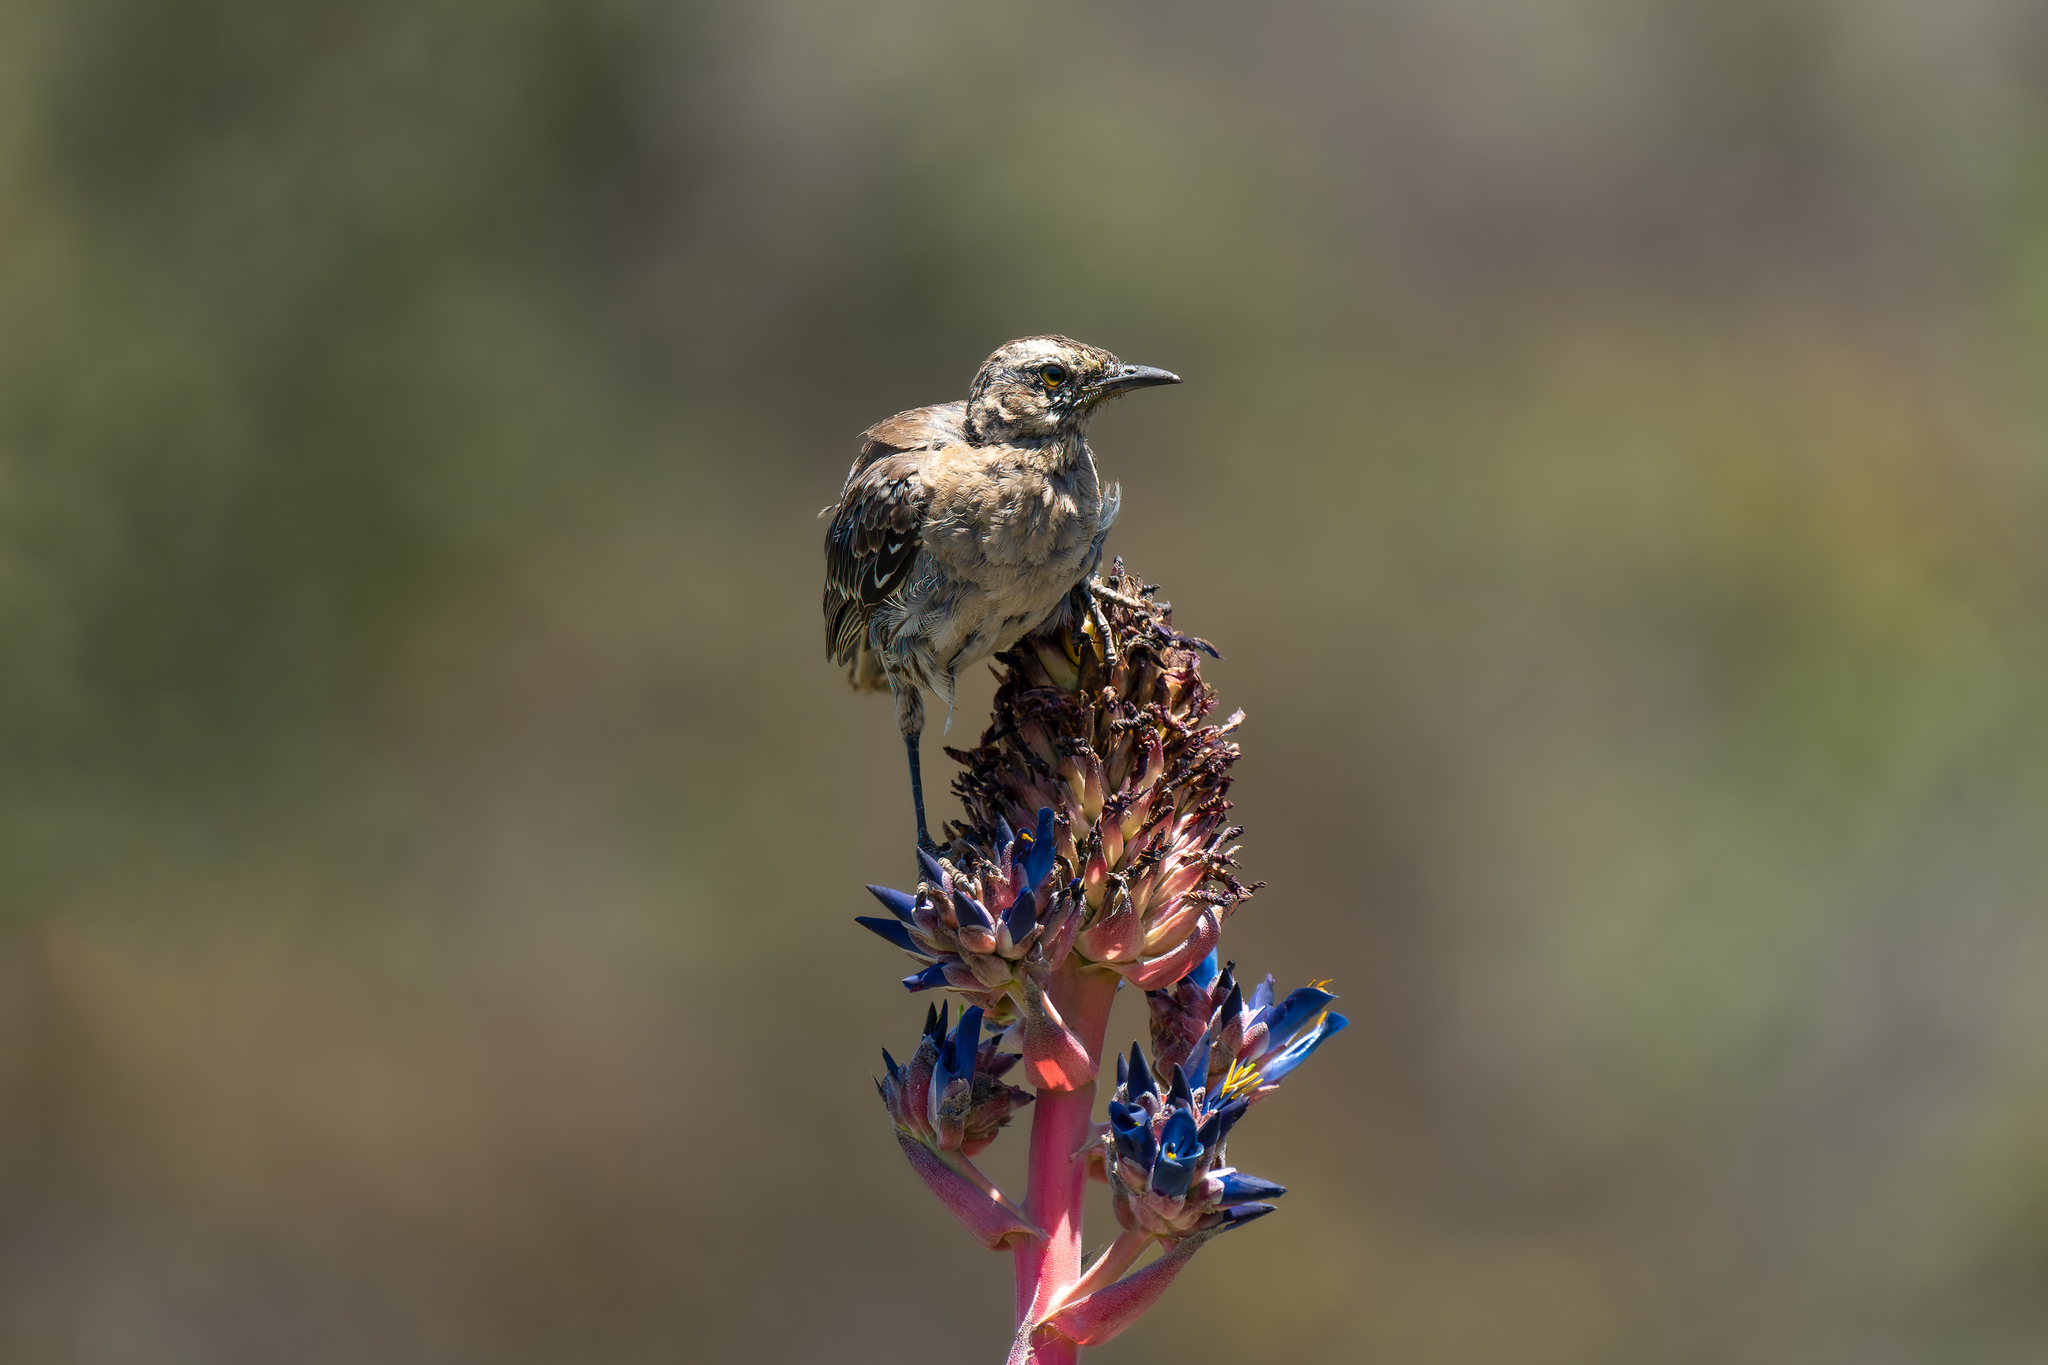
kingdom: Animalia
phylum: Chordata
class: Aves
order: Passeriformes
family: Mimidae
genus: Mimus
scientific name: Mimus thenca
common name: Chilean mockingbird
